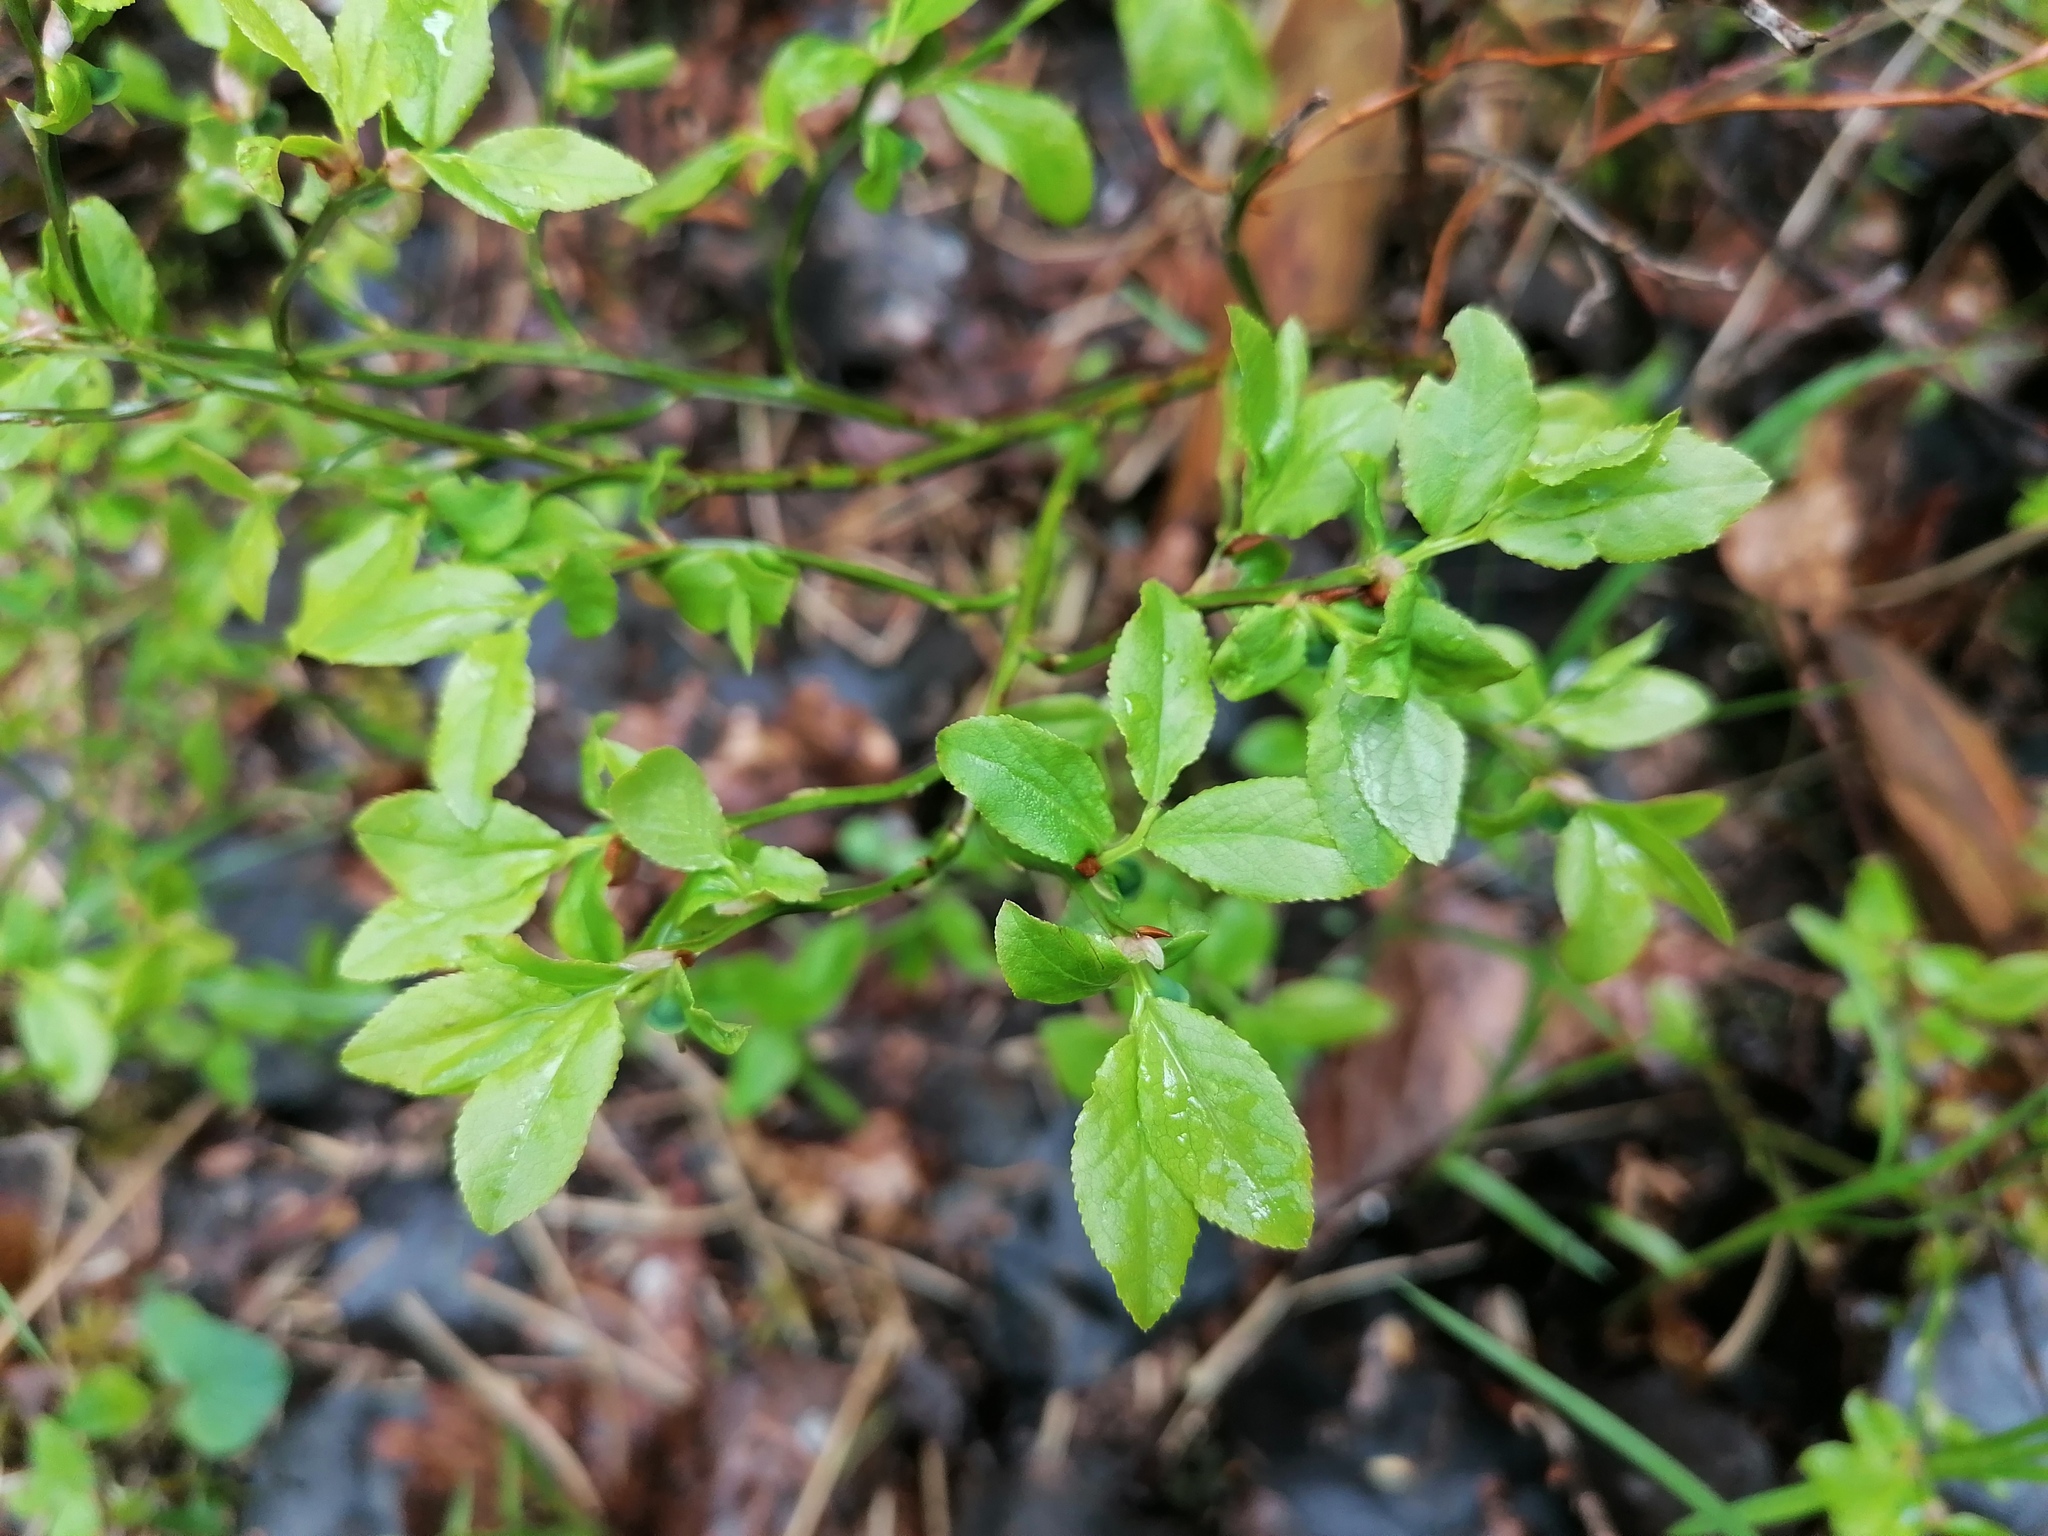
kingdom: Plantae
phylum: Tracheophyta
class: Magnoliopsida
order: Ericales
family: Ericaceae
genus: Vaccinium
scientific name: Vaccinium myrtillus
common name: Bilberry
